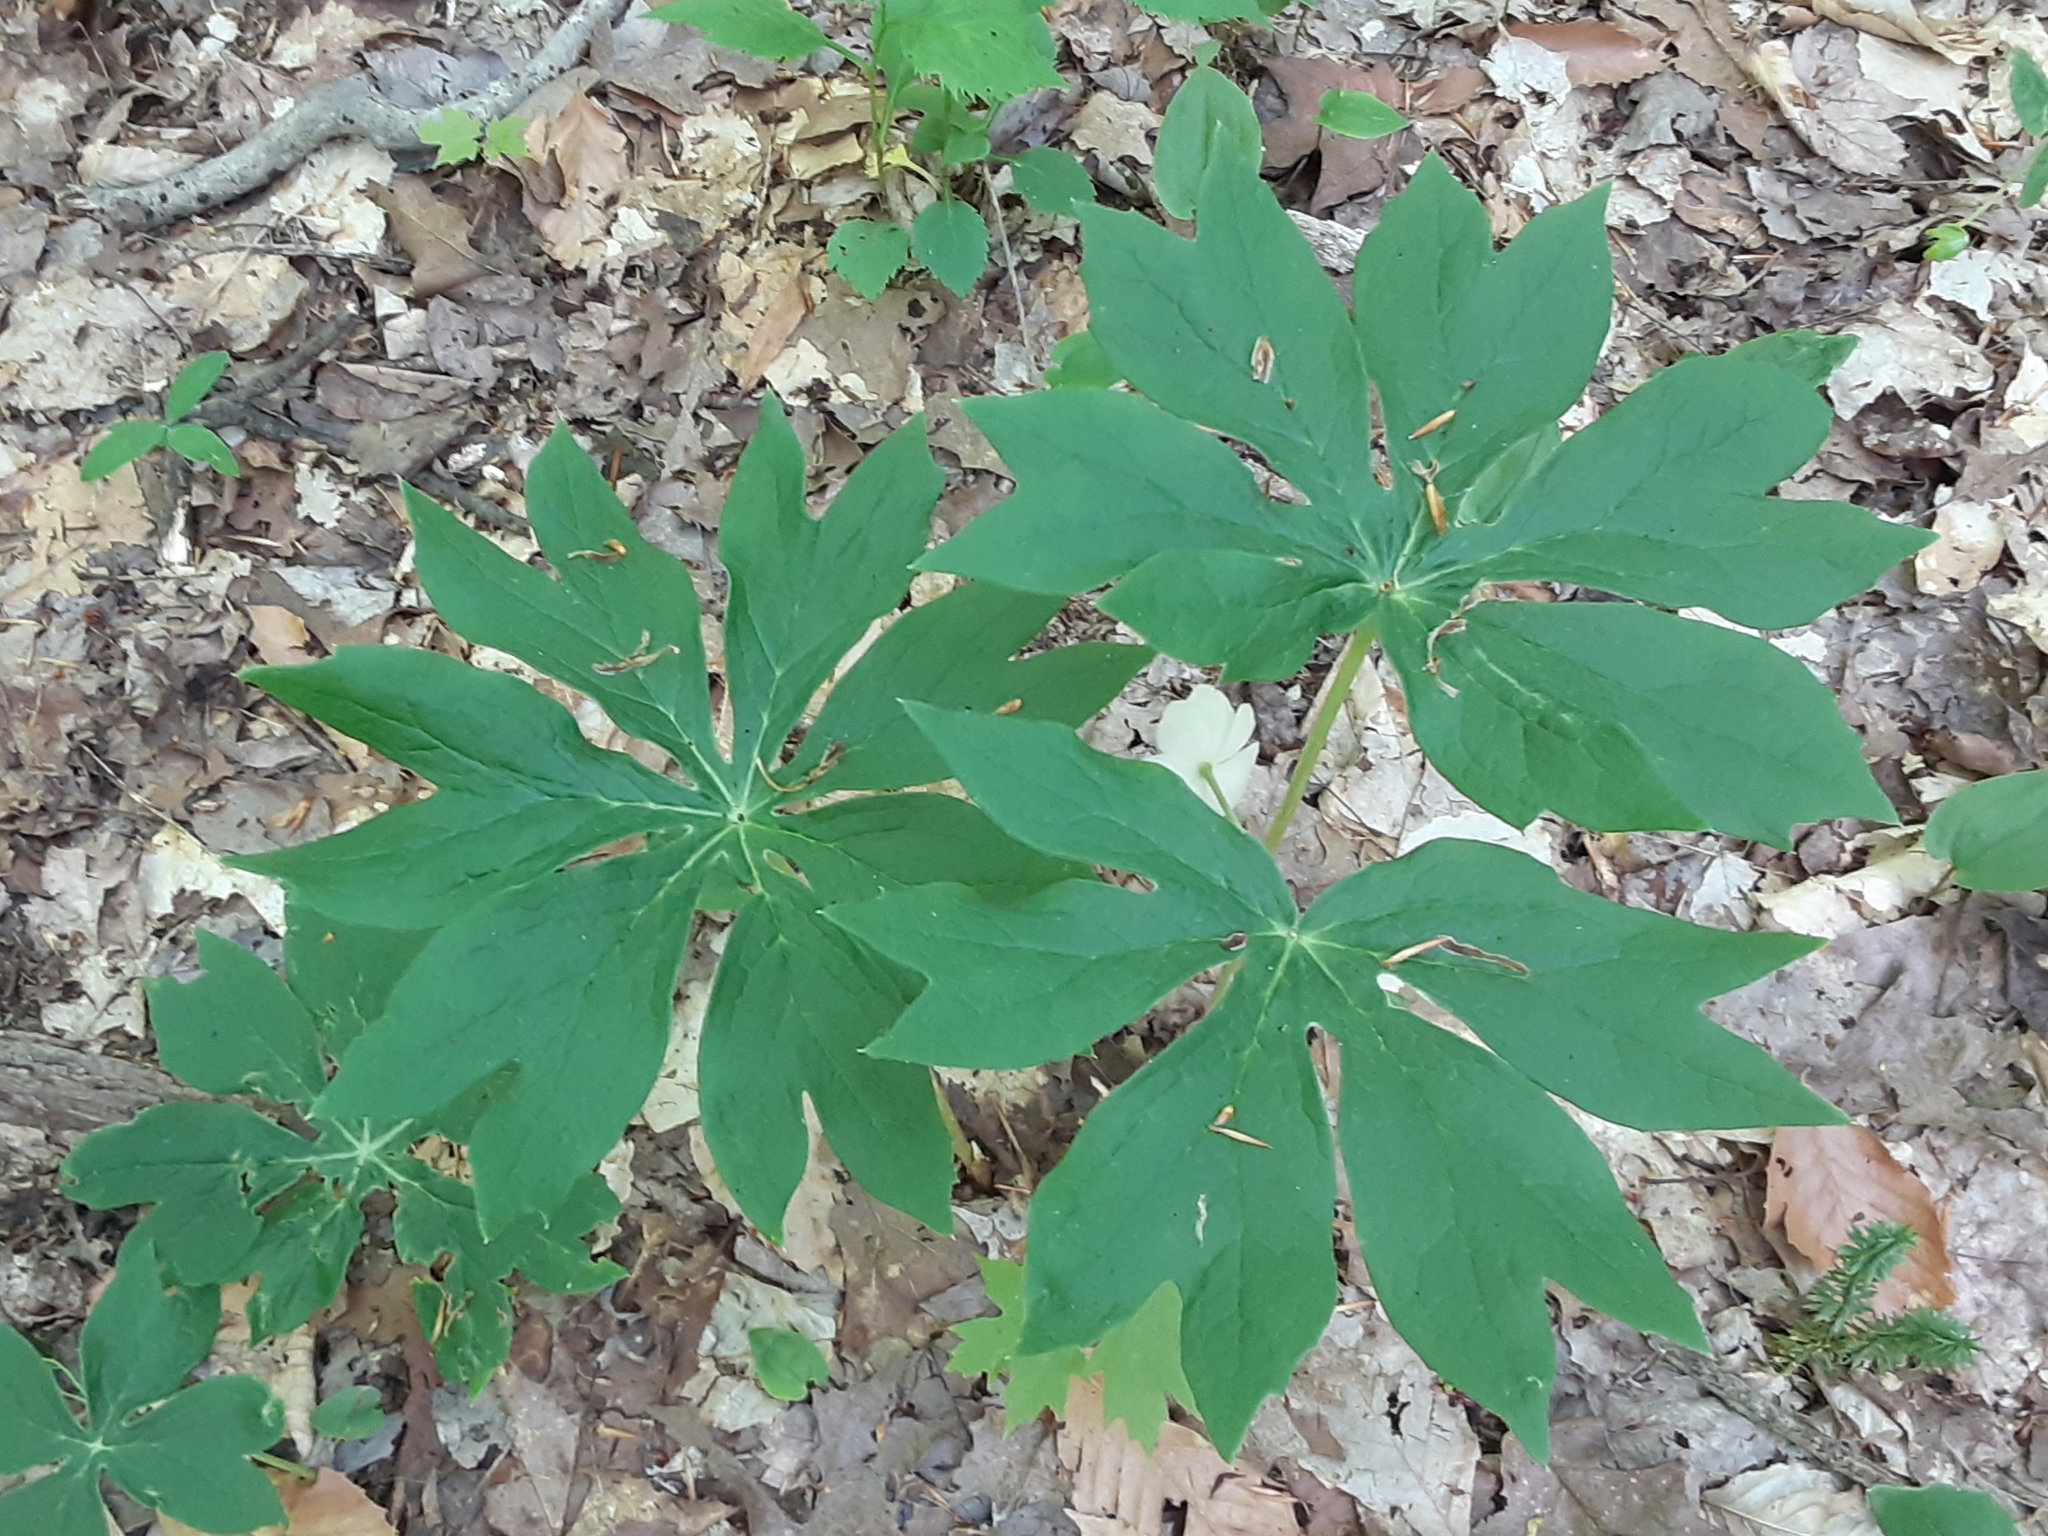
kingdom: Plantae
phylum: Tracheophyta
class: Magnoliopsida
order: Ranunculales
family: Berberidaceae
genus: Podophyllum
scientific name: Podophyllum peltatum
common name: Wild mandrake
